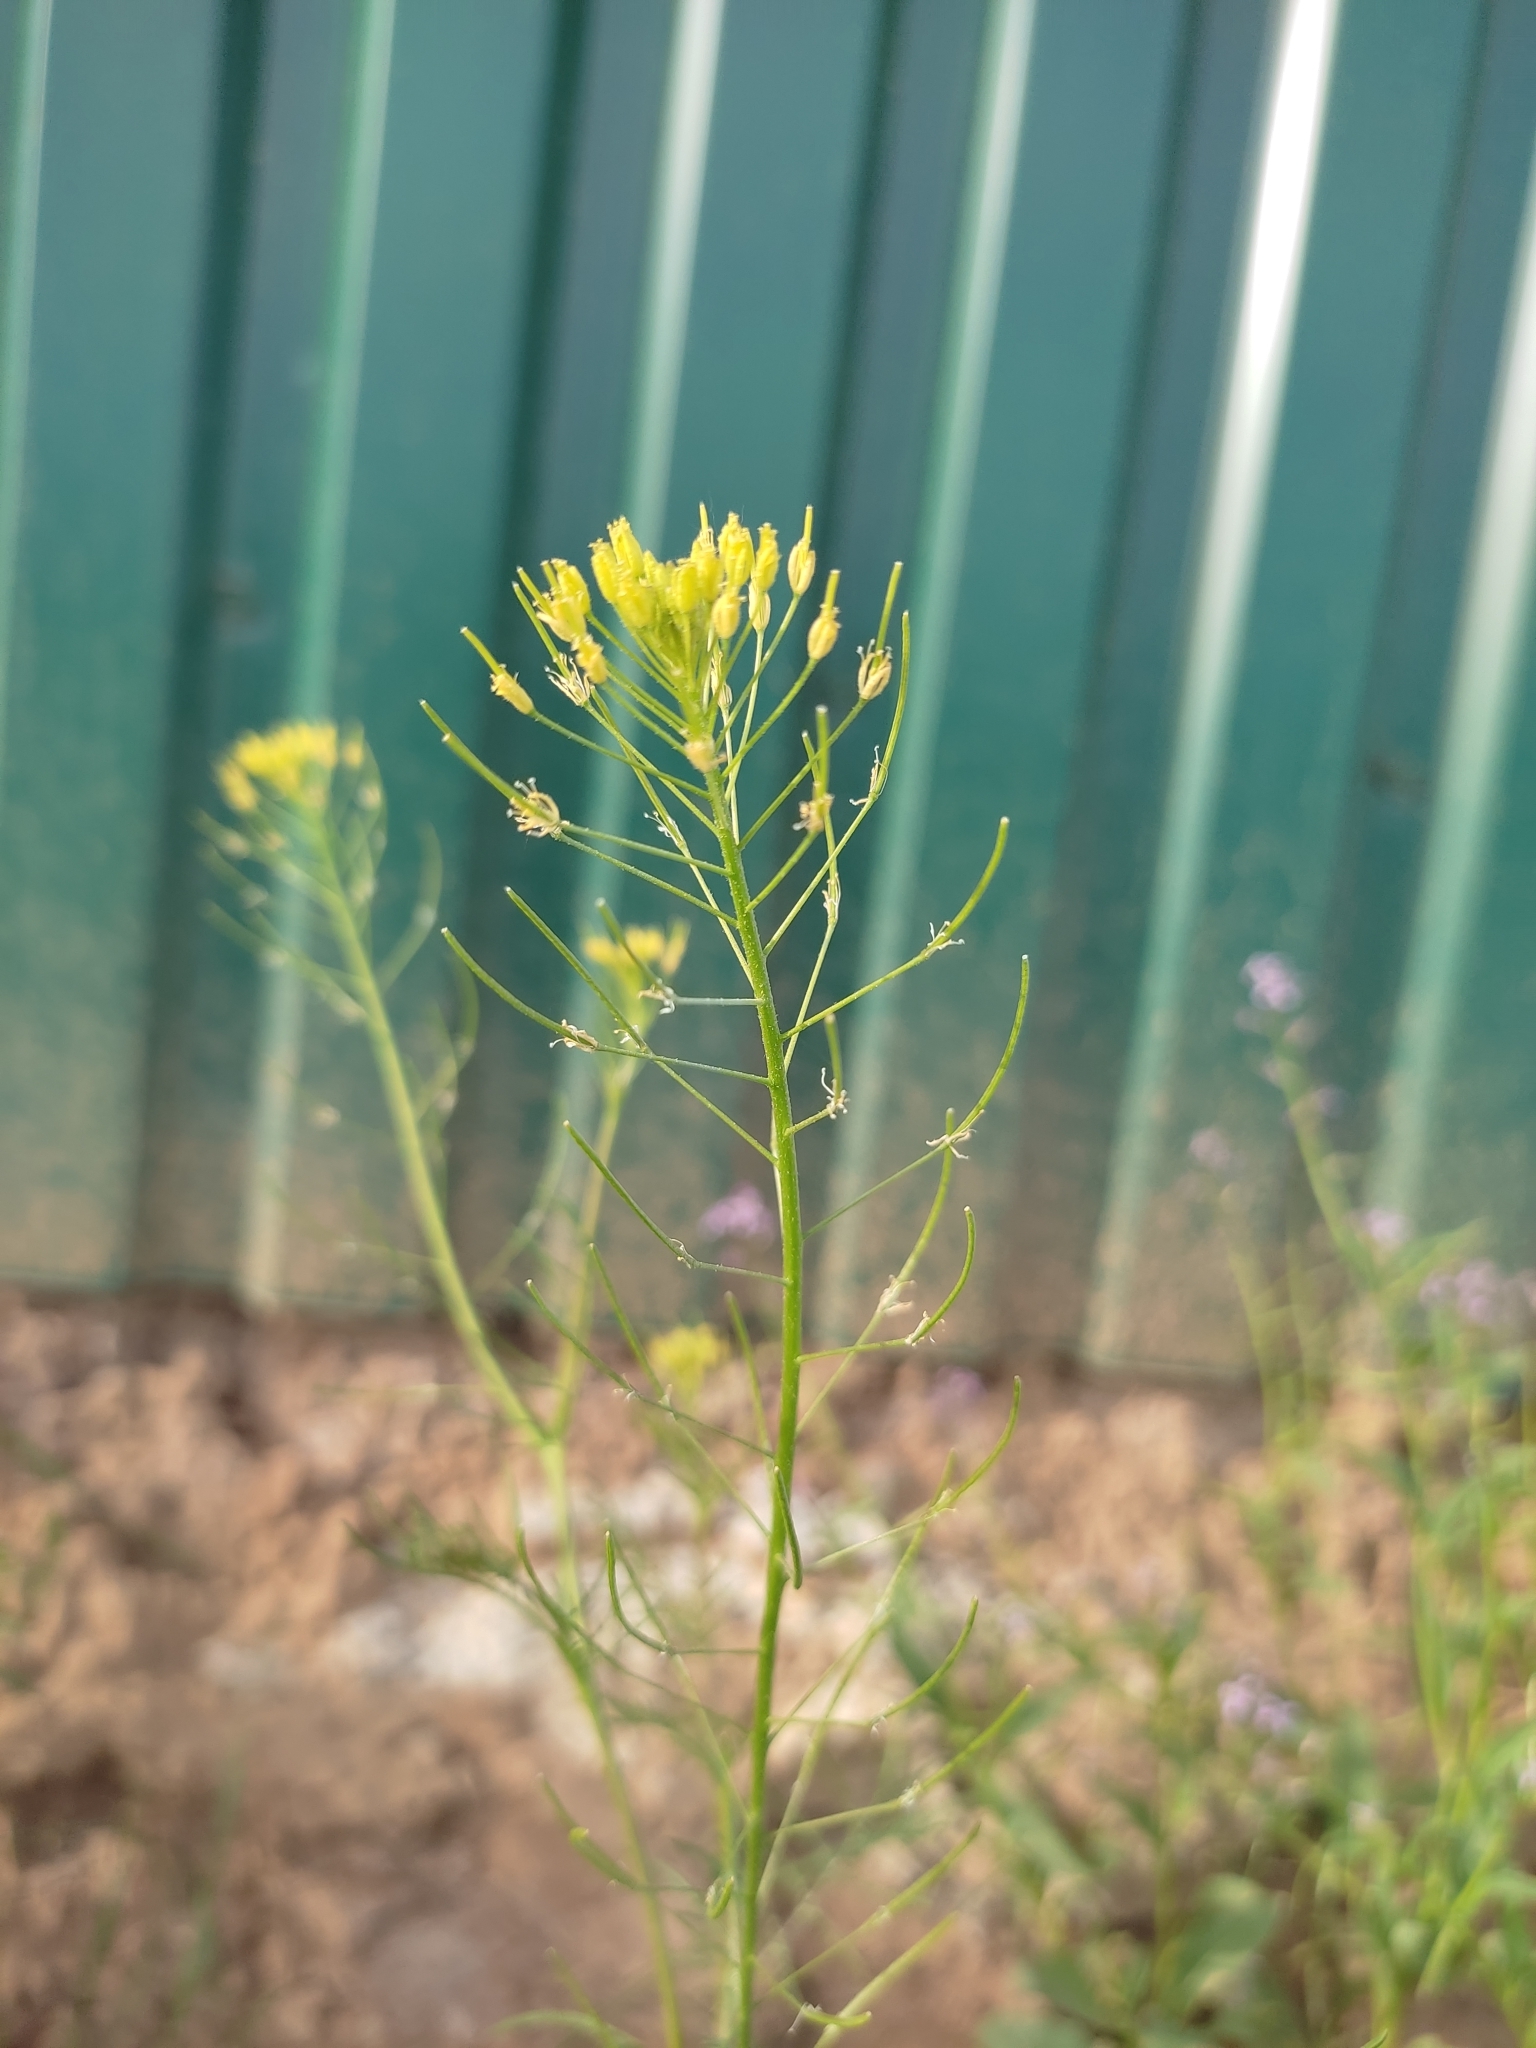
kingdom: Plantae
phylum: Tracheophyta
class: Magnoliopsida
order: Brassicales
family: Brassicaceae
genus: Descurainia
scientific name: Descurainia sophia
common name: Flixweed
